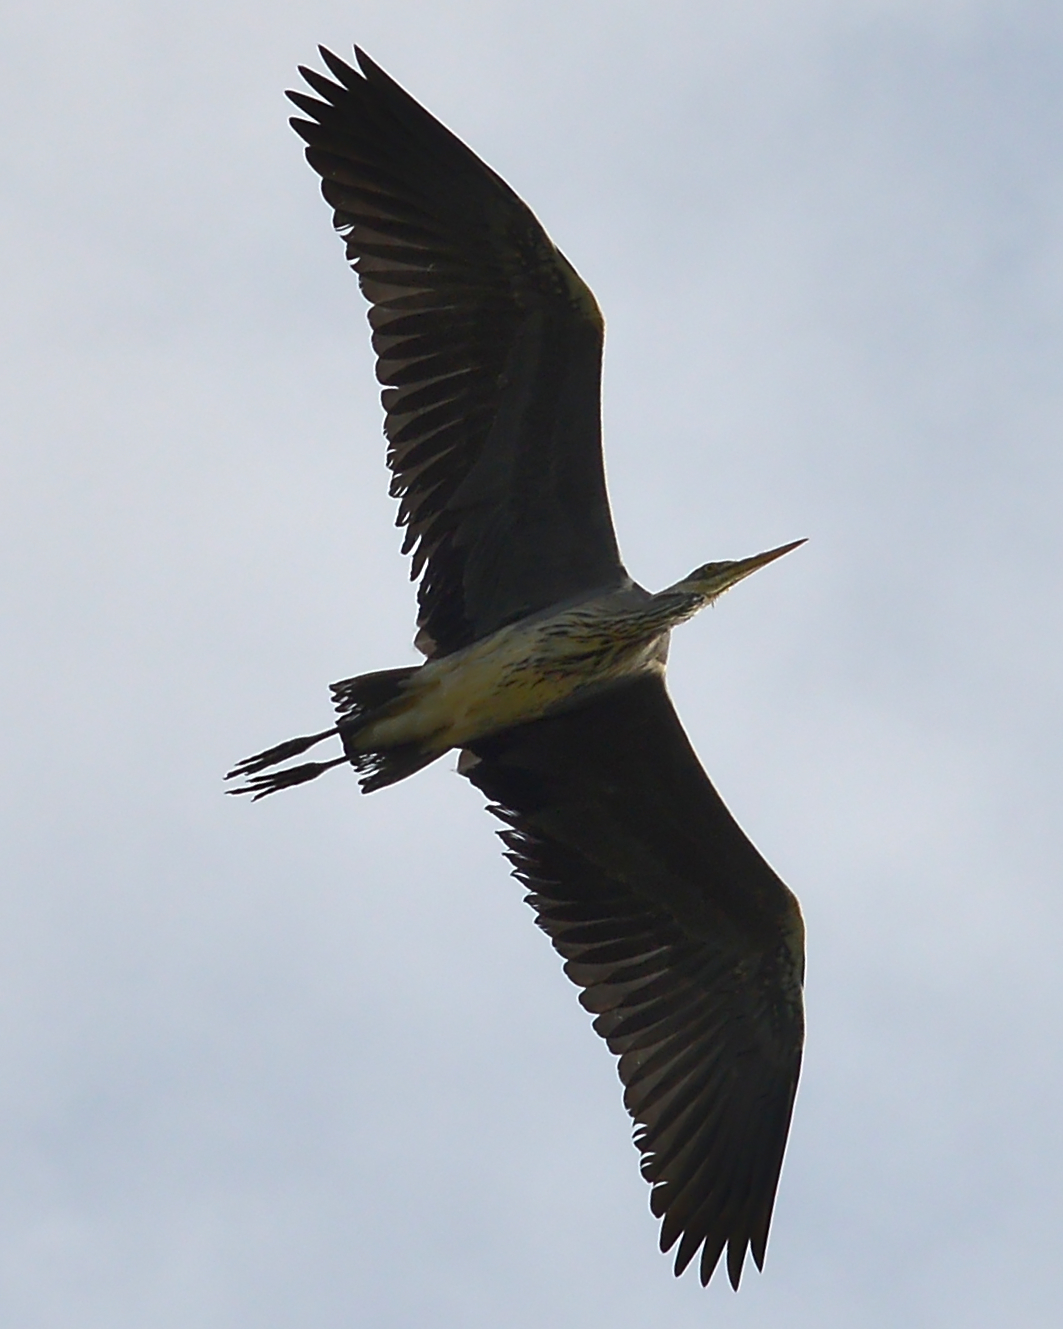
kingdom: Animalia
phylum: Chordata
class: Aves
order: Pelecaniformes
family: Ardeidae
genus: Ardea
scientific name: Ardea cinerea
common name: Grey heron
